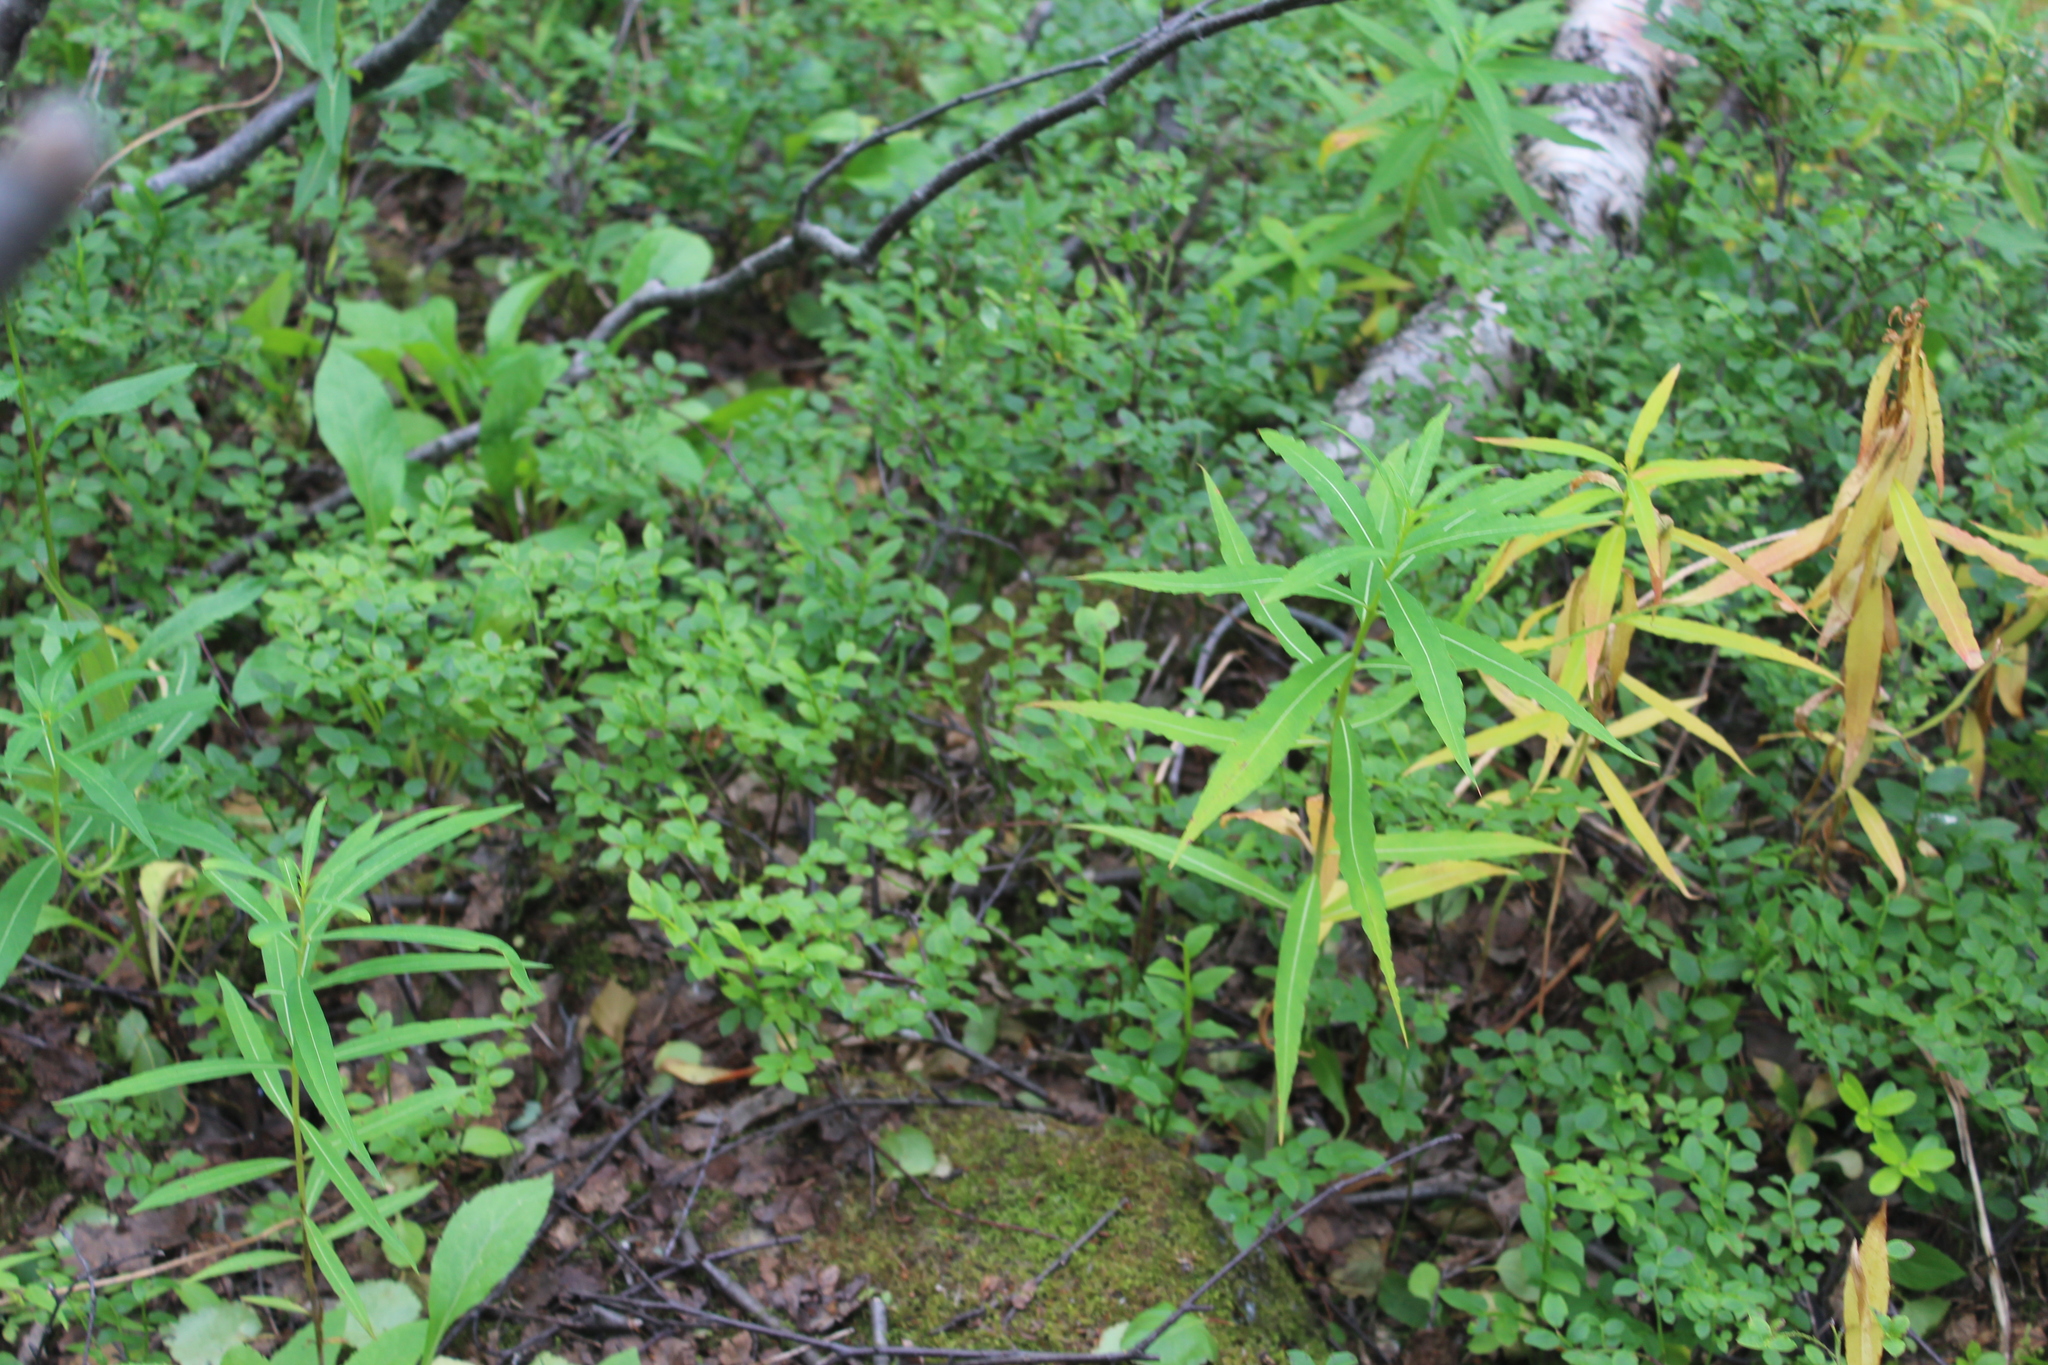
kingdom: Plantae
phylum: Tracheophyta
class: Magnoliopsida
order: Myrtales
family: Onagraceae
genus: Chamaenerion
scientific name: Chamaenerion angustifolium
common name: Fireweed
